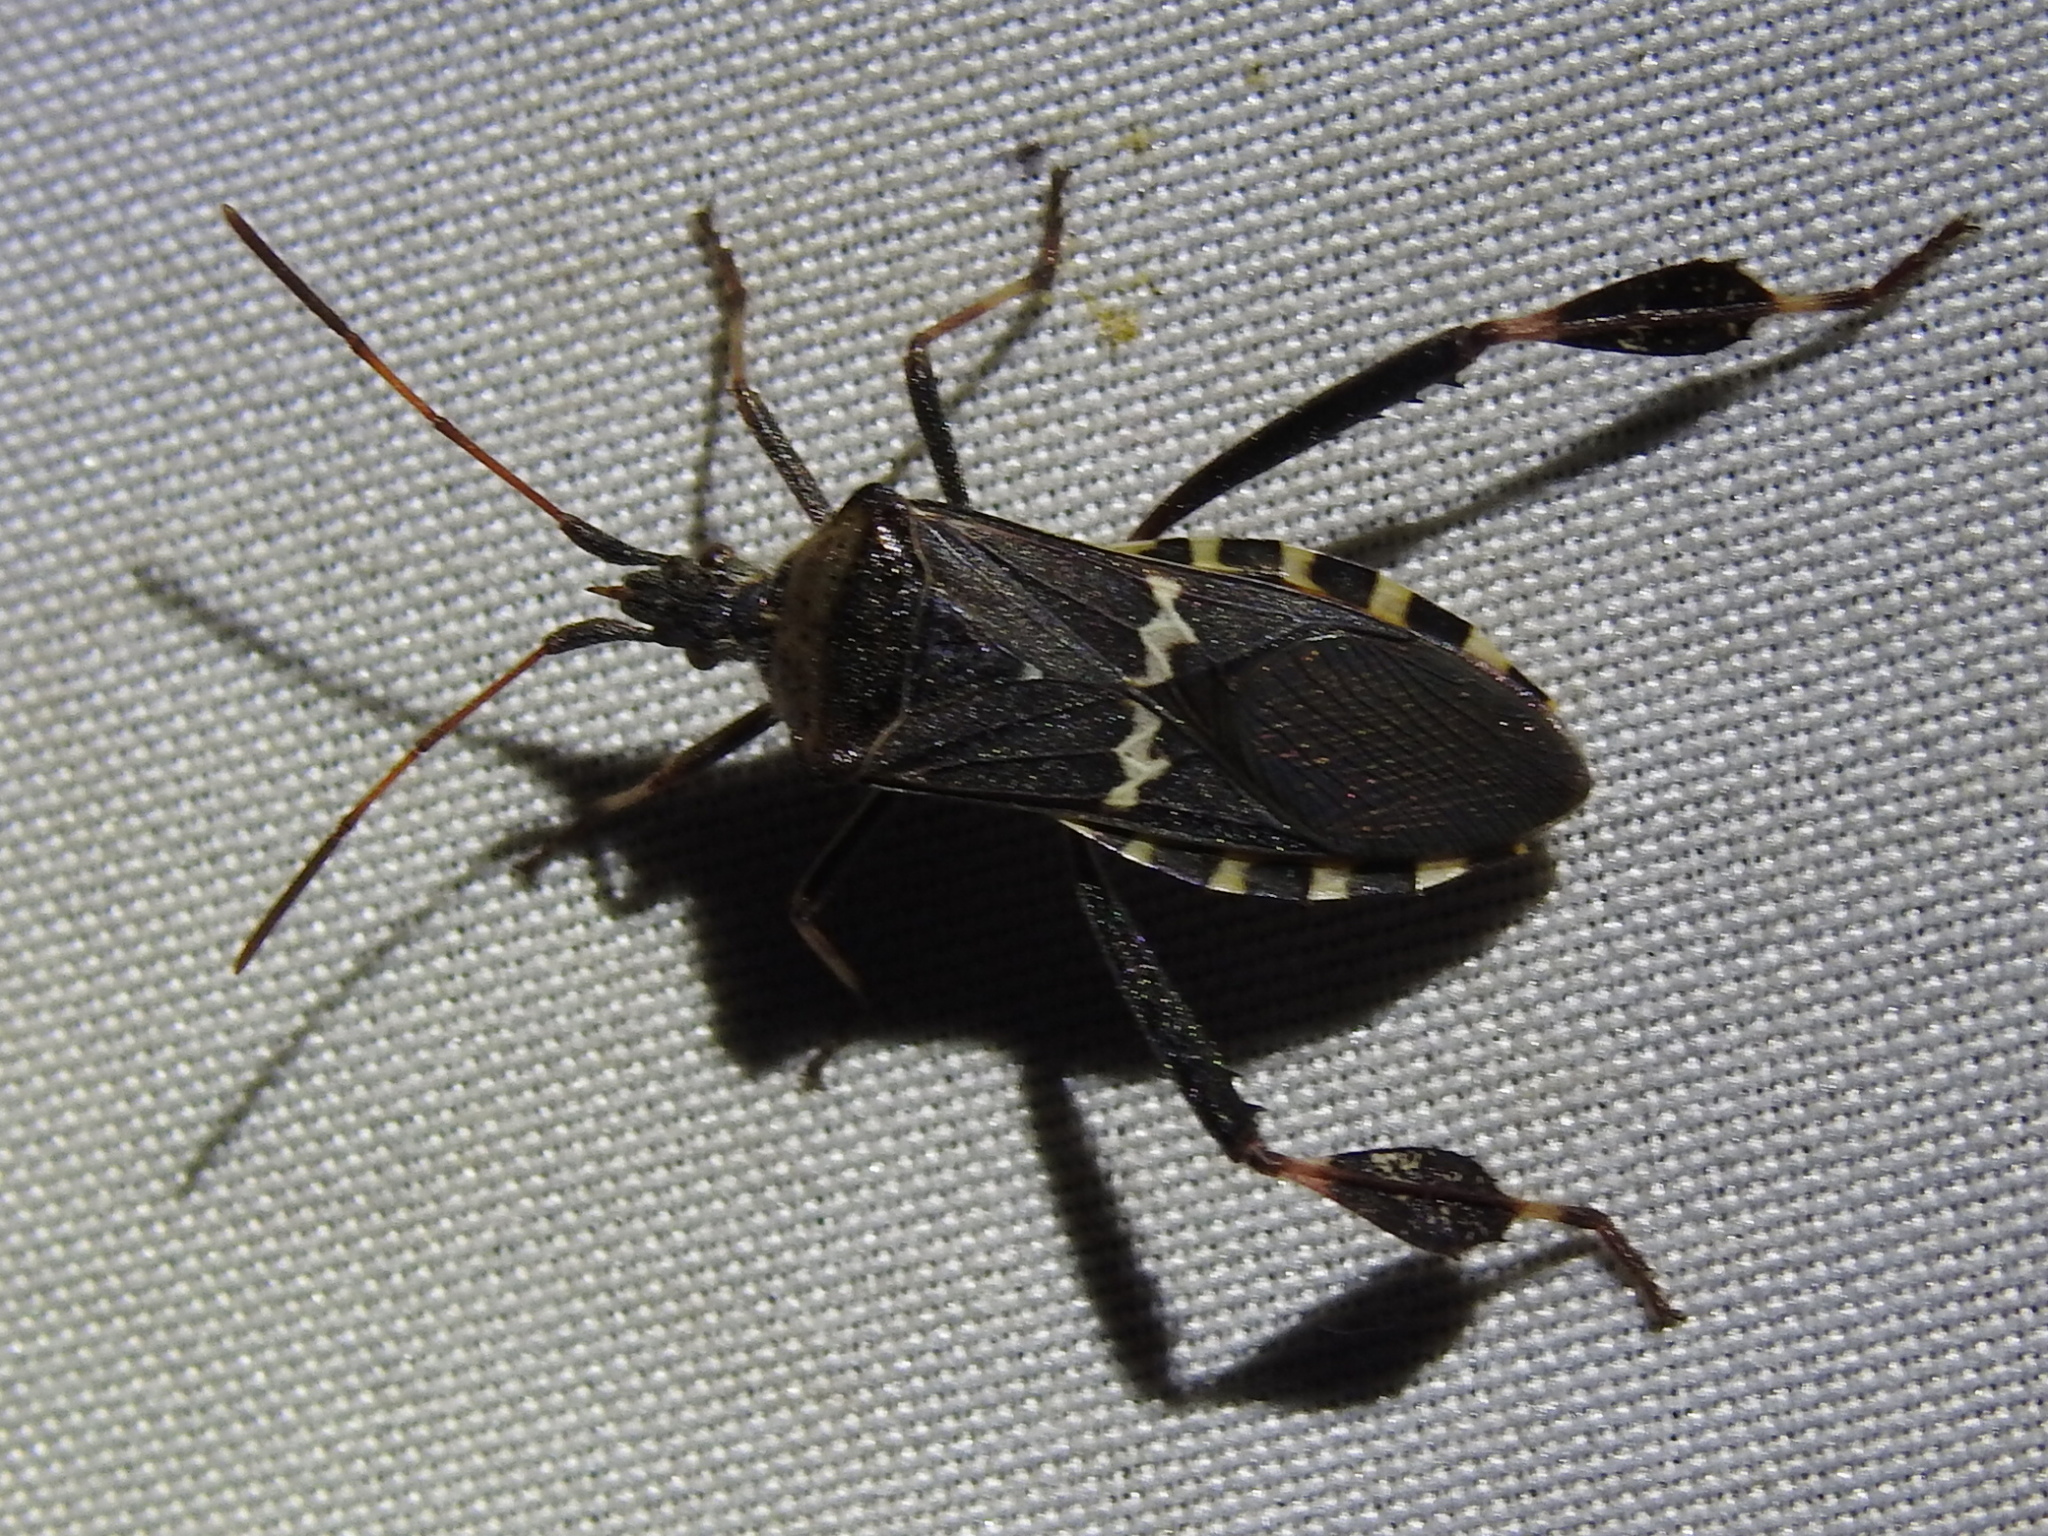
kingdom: Animalia
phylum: Arthropoda
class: Insecta
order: Hemiptera
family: Coreidae
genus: Leptoglossus
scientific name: Leptoglossus clypealis
